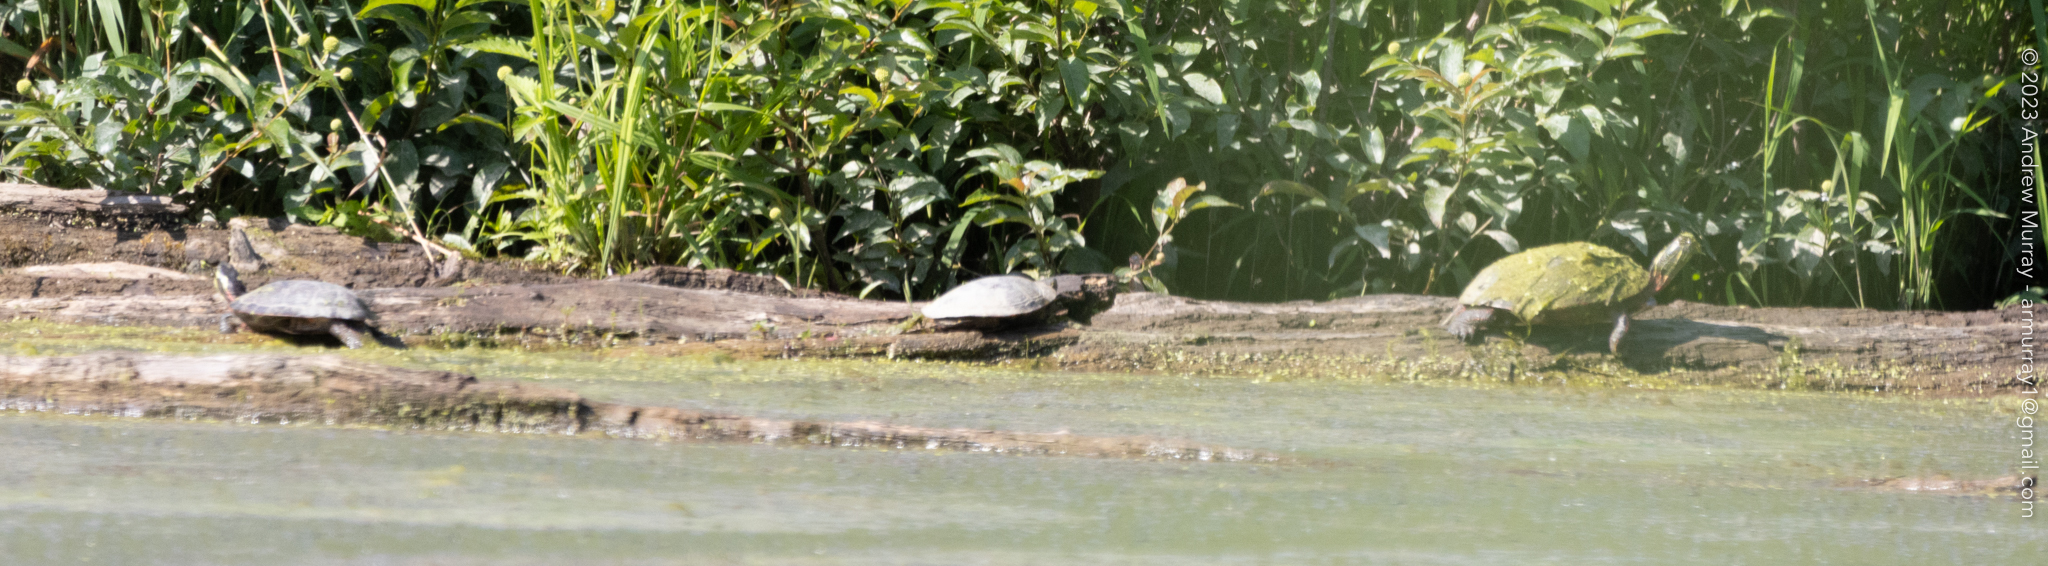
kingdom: Animalia
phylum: Chordata
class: Testudines
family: Emydidae
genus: Chrysemys
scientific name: Chrysemys picta
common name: Painted turtle
